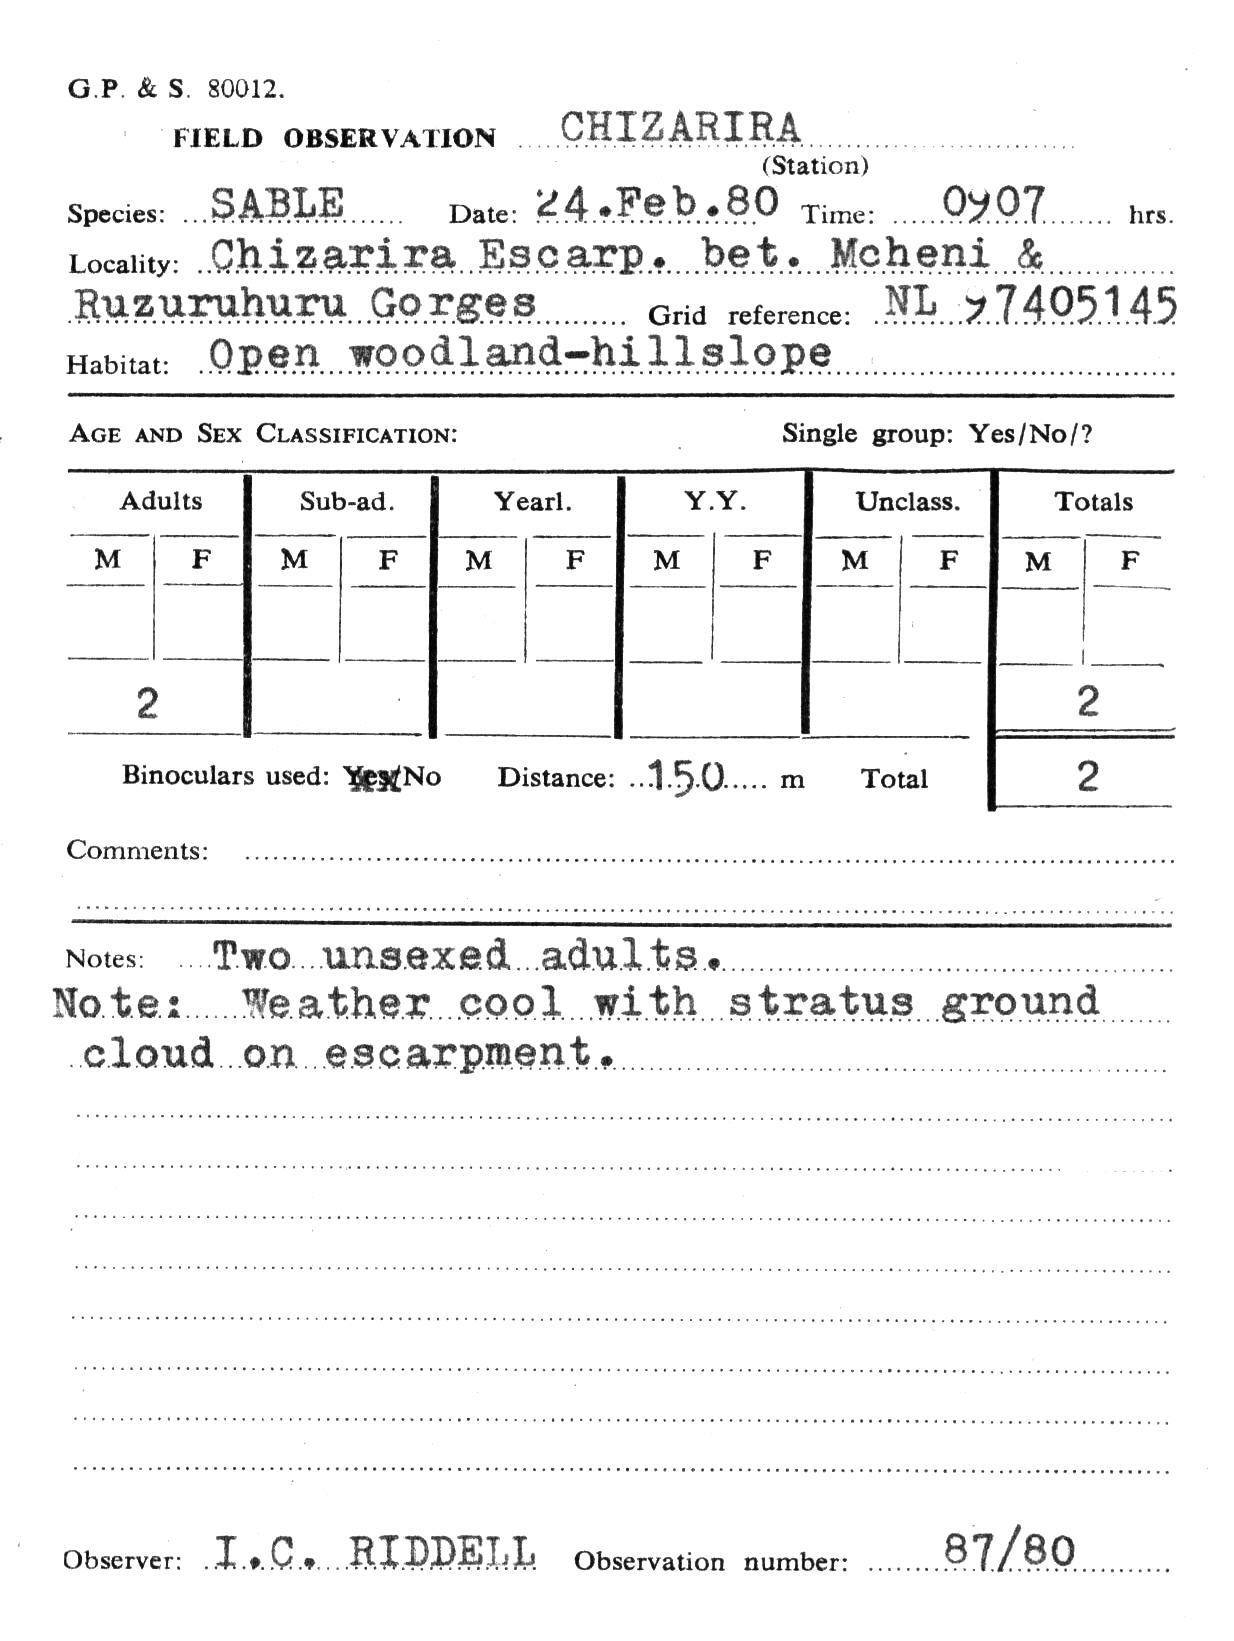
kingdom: Animalia
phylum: Chordata
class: Mammalia
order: Artiodactyla
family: Bovidae
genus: Hippotragus
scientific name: Hippotragus niger
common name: Sable antelope
